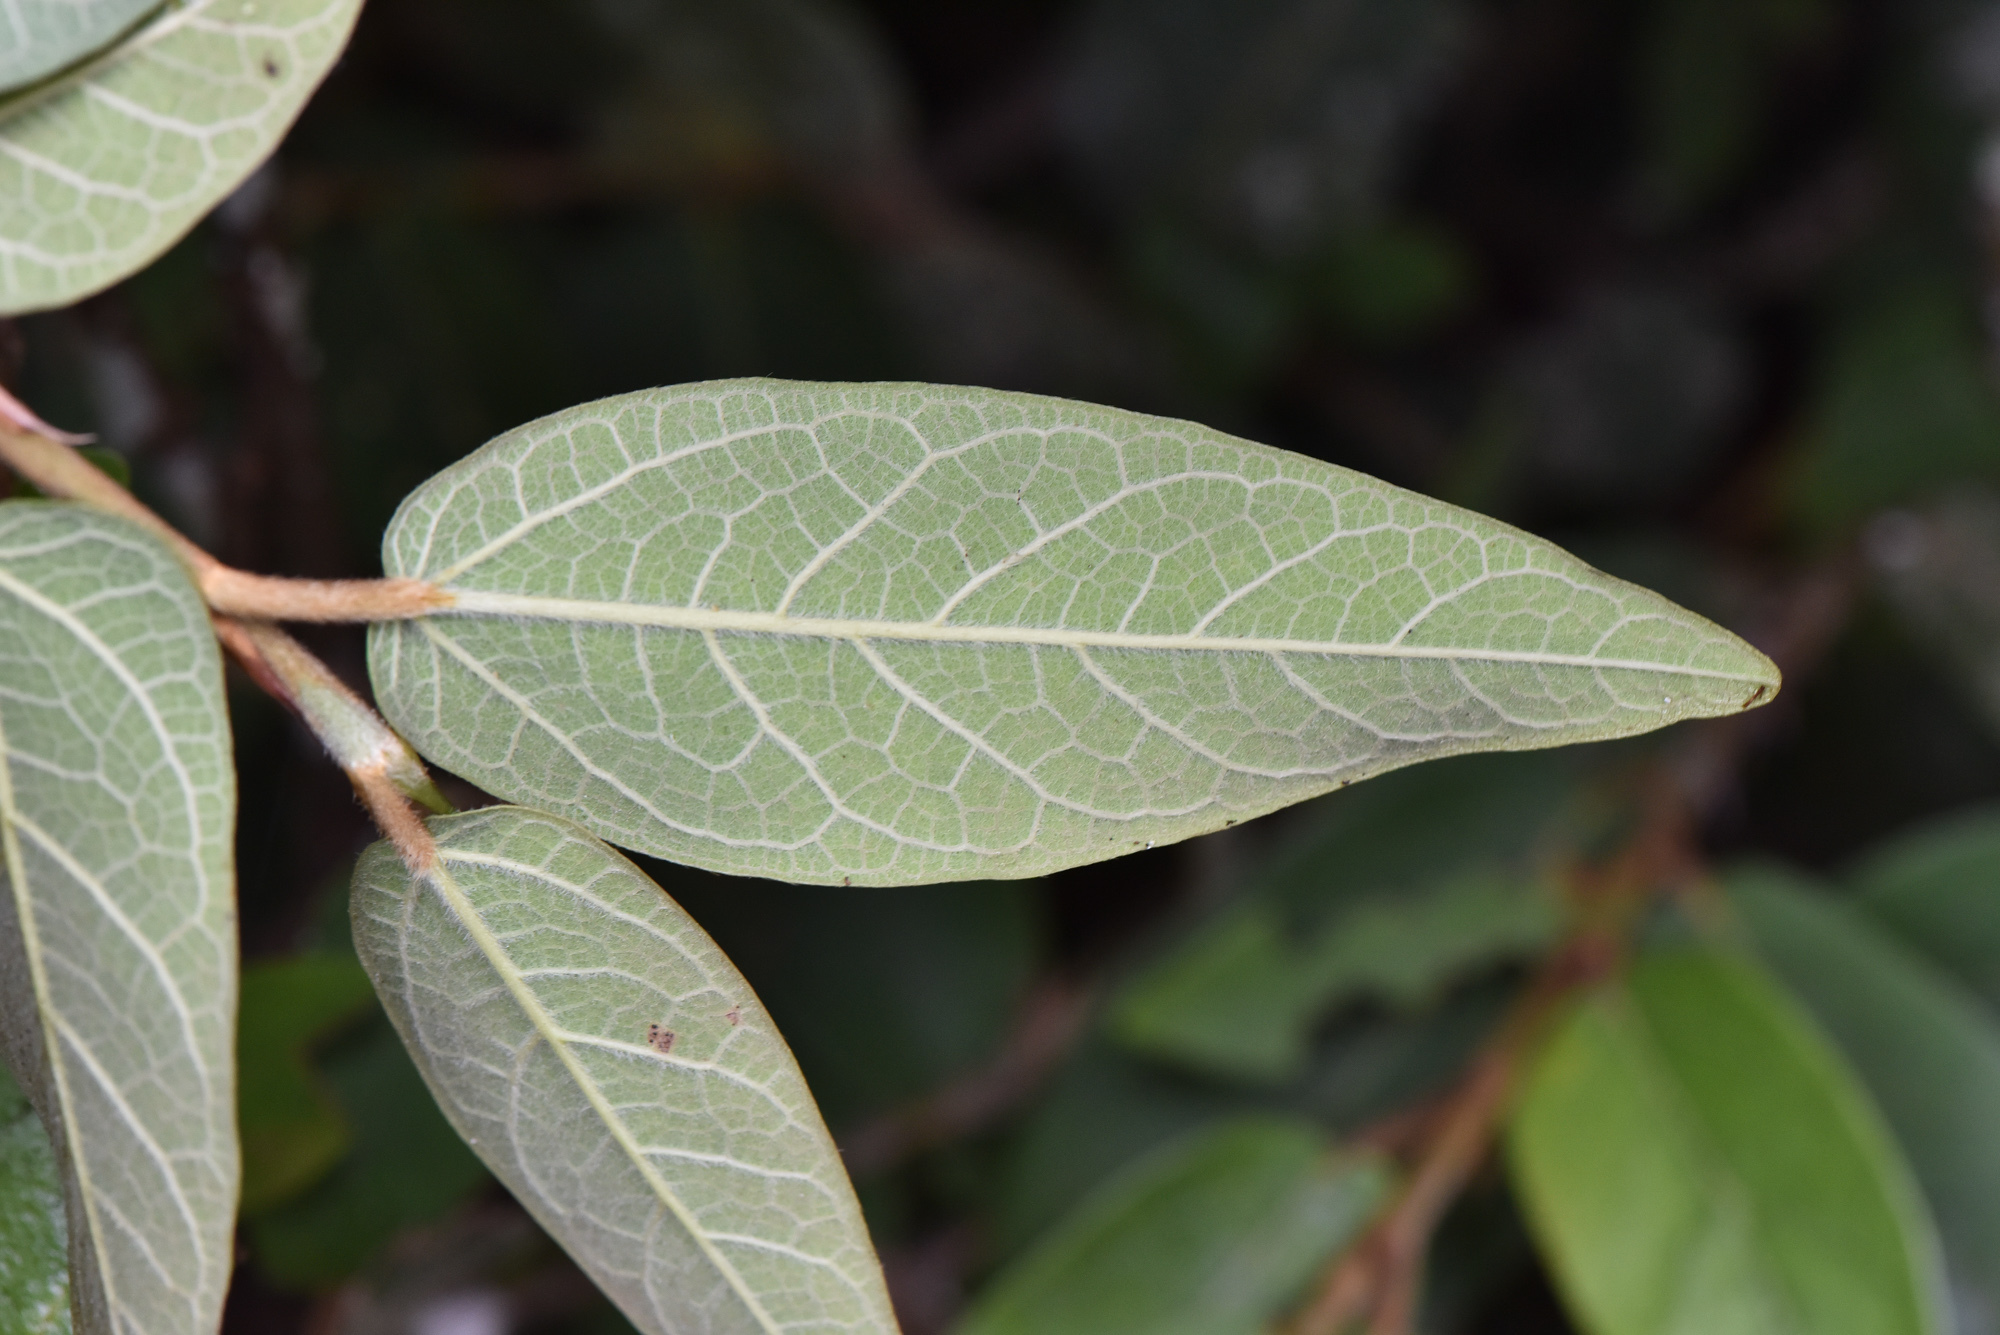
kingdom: Plantae
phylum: Tracheophyta
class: Magnoliopsida
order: Rosales
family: Moraceae
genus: Ficus
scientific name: Ficus pumila
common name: Climbingfig
